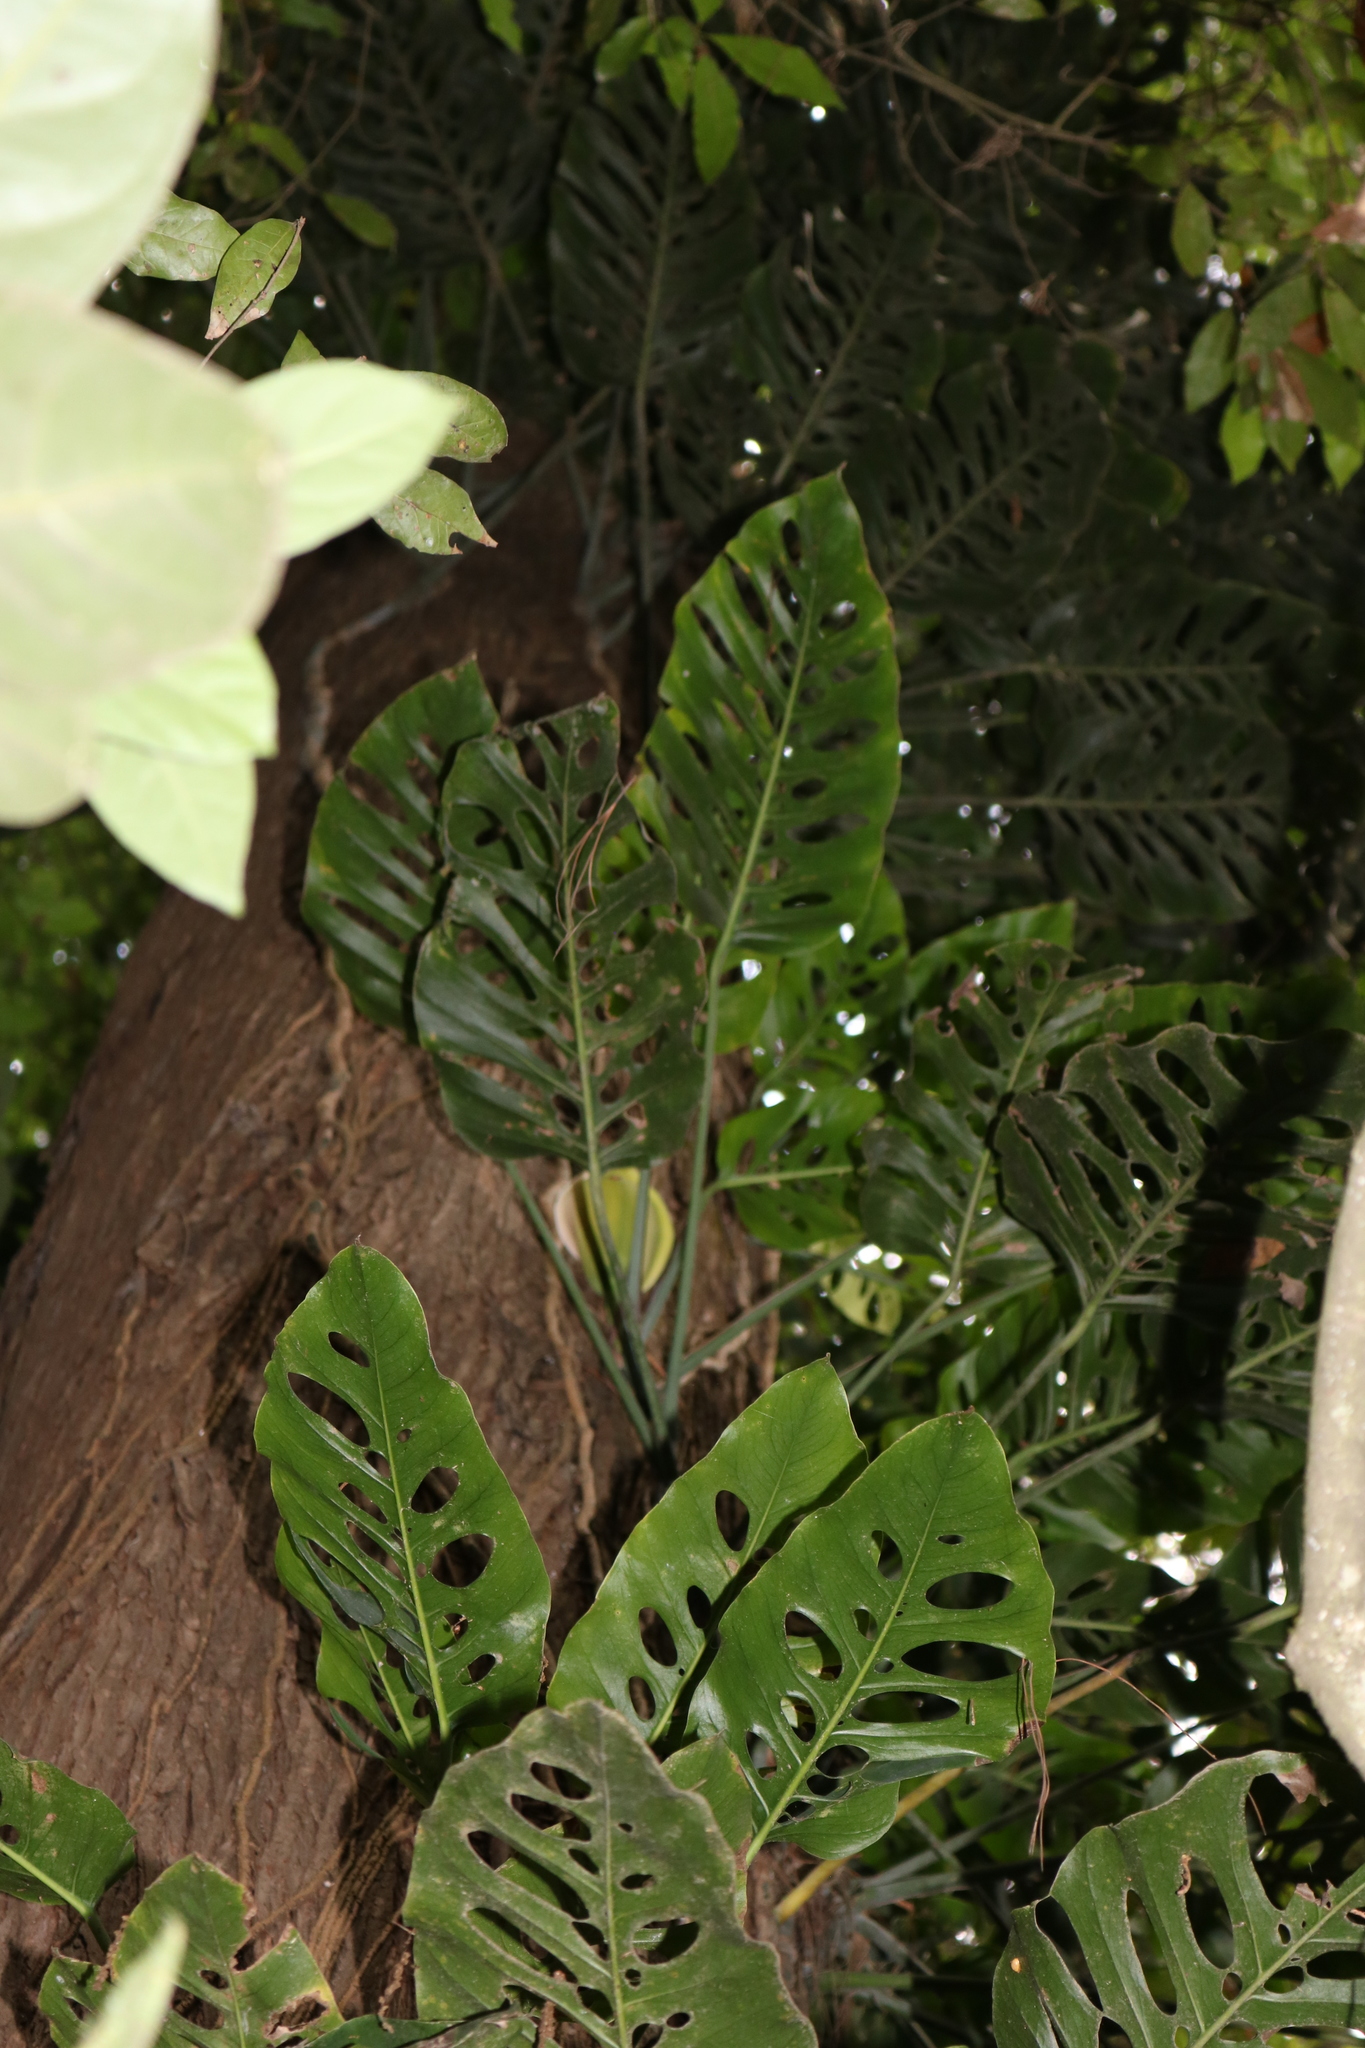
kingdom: Plantae
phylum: Tracheophyta
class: Liliopsida
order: Alismatales
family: Araceae
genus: Monstera
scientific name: Monstera siltepecana
